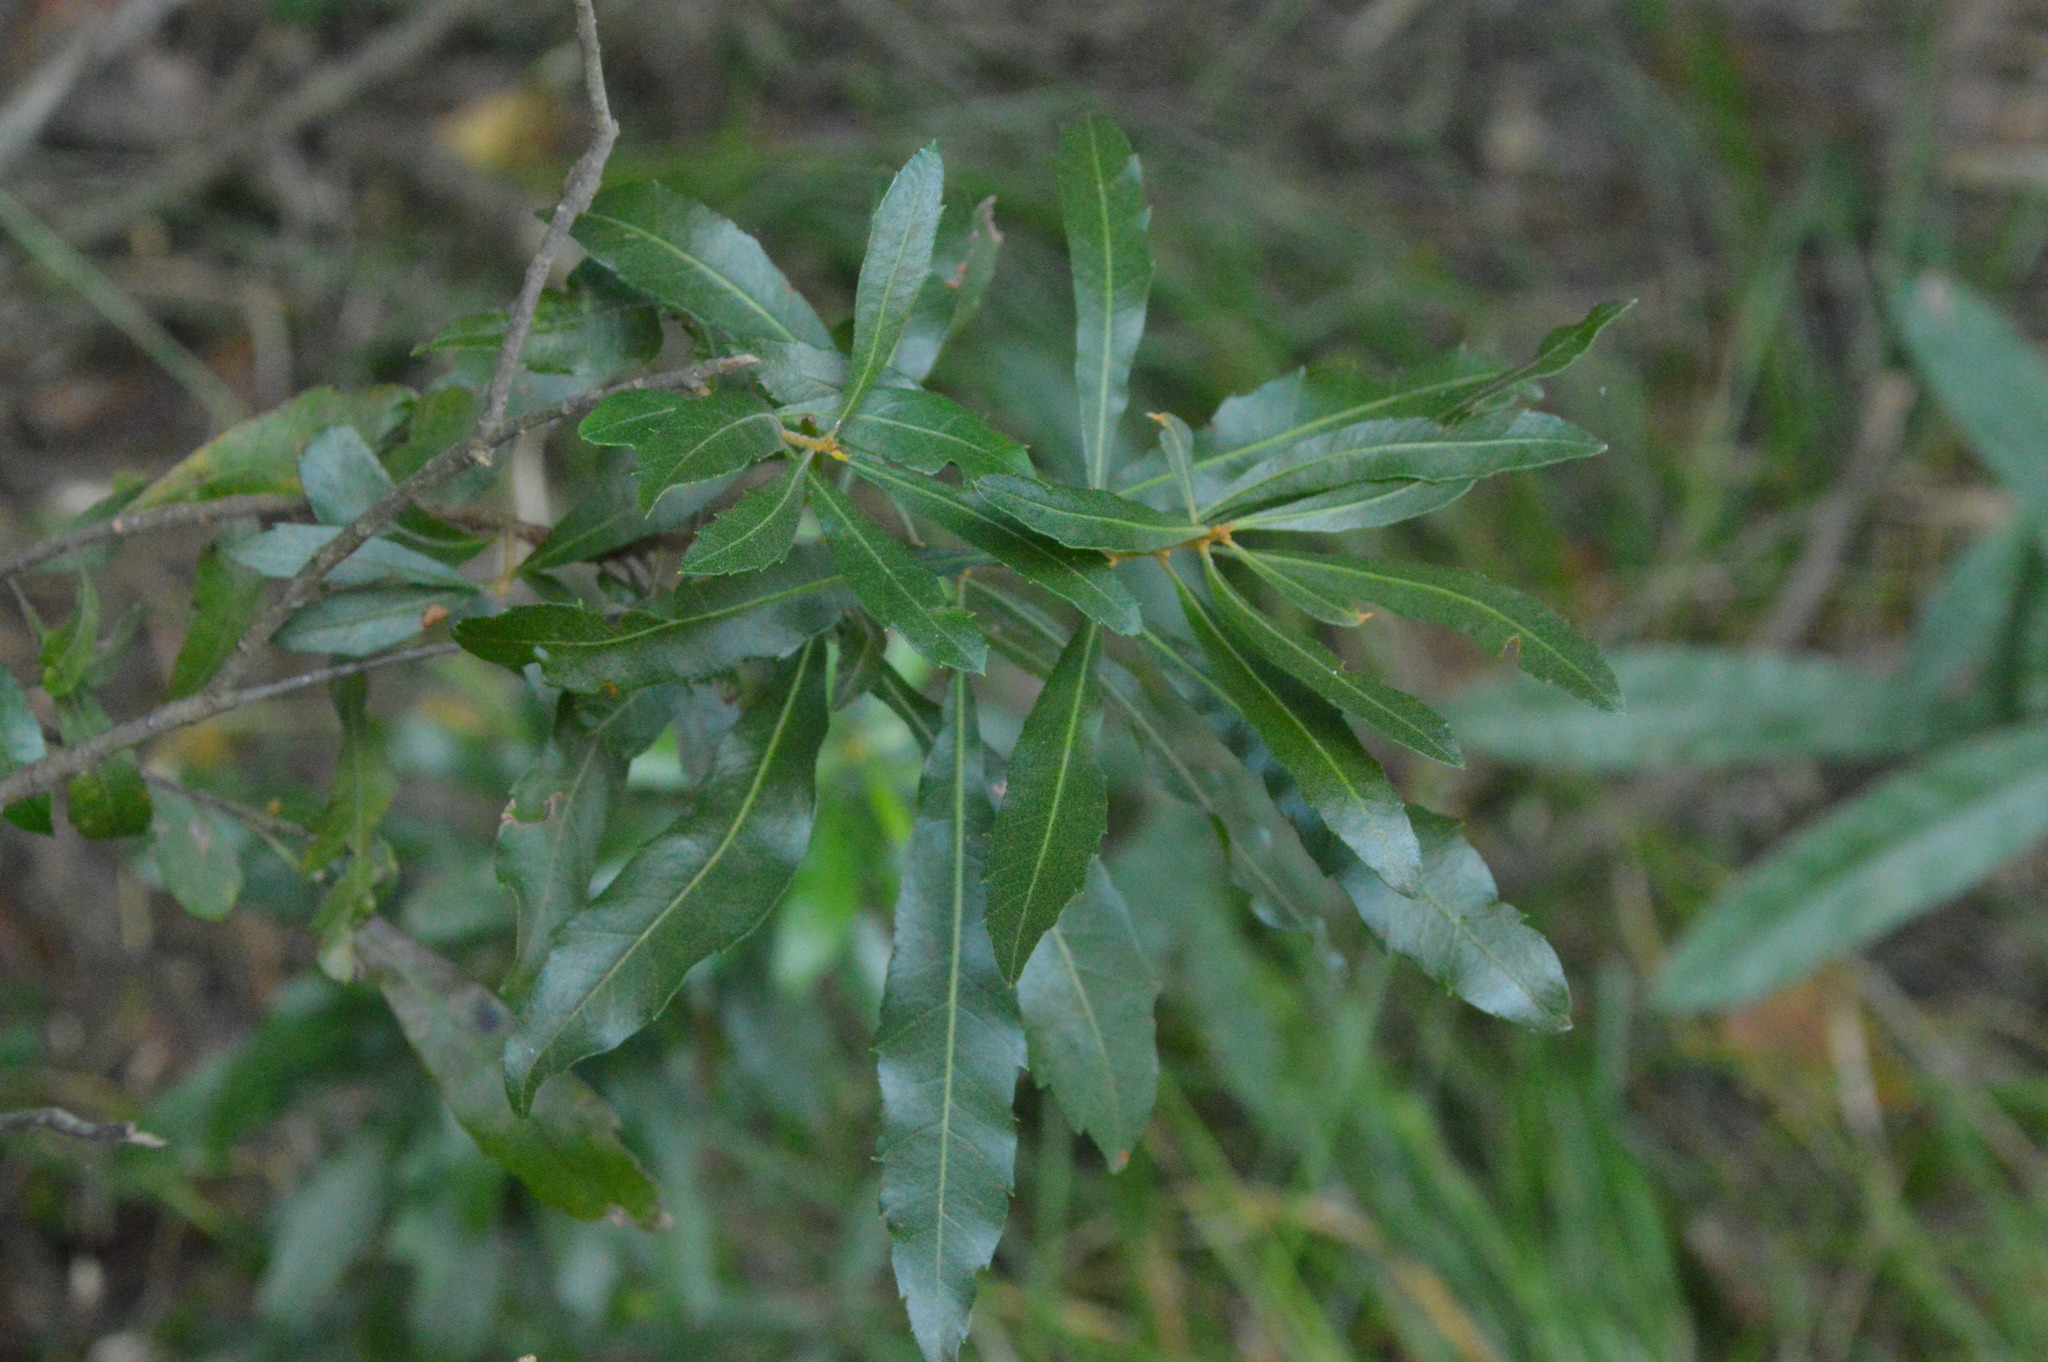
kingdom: Plantae
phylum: Tracheophyta
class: Magnoliopsida
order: Fagales
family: Myricaceae
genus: Morella
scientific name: Morella cerifera
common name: Wax myrtle
